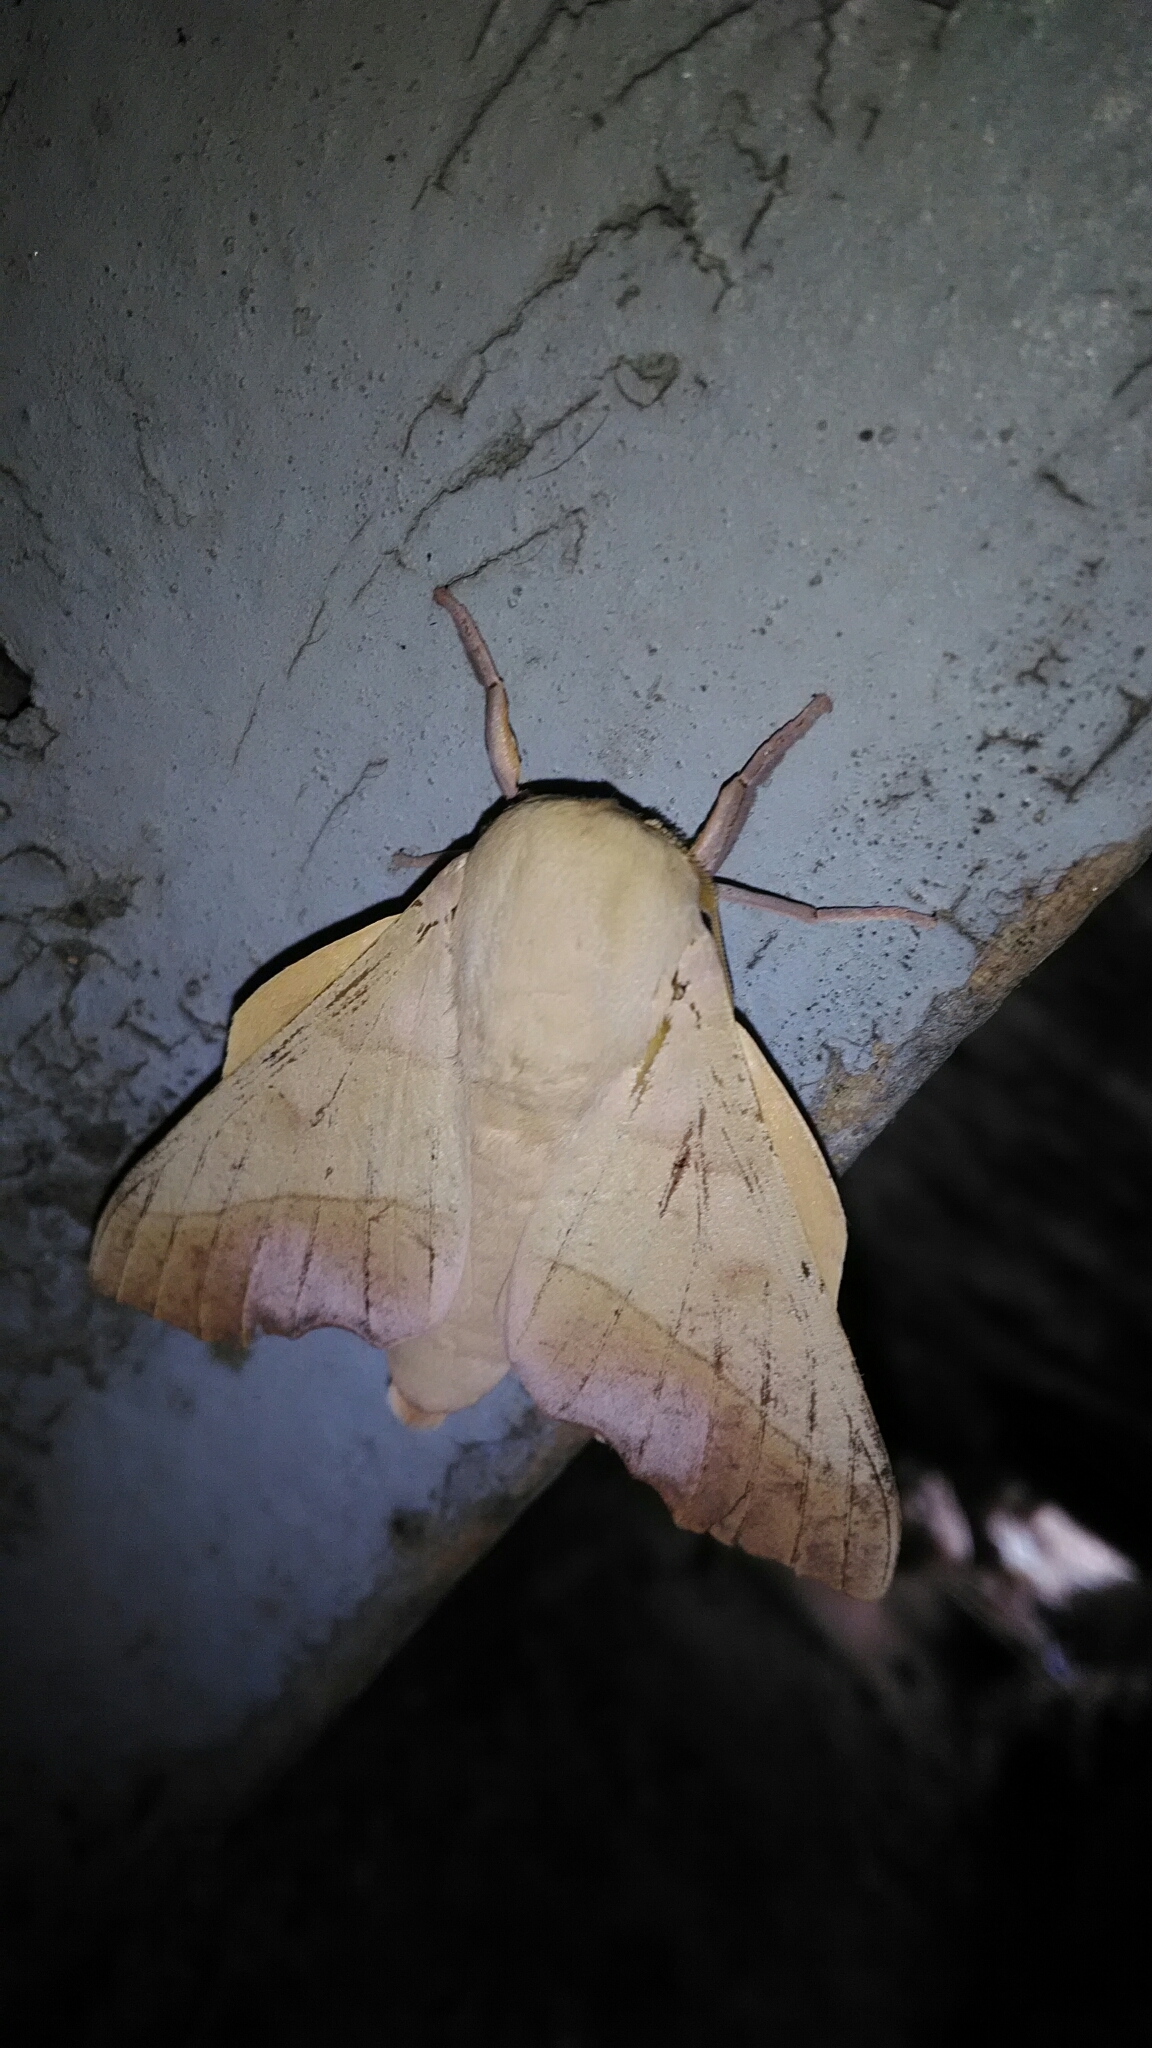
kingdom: Animalia
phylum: Arthropoda
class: Insecta
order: Lepidoptera
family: Saturniidae
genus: Syssphinx
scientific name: Syssphinx molina
